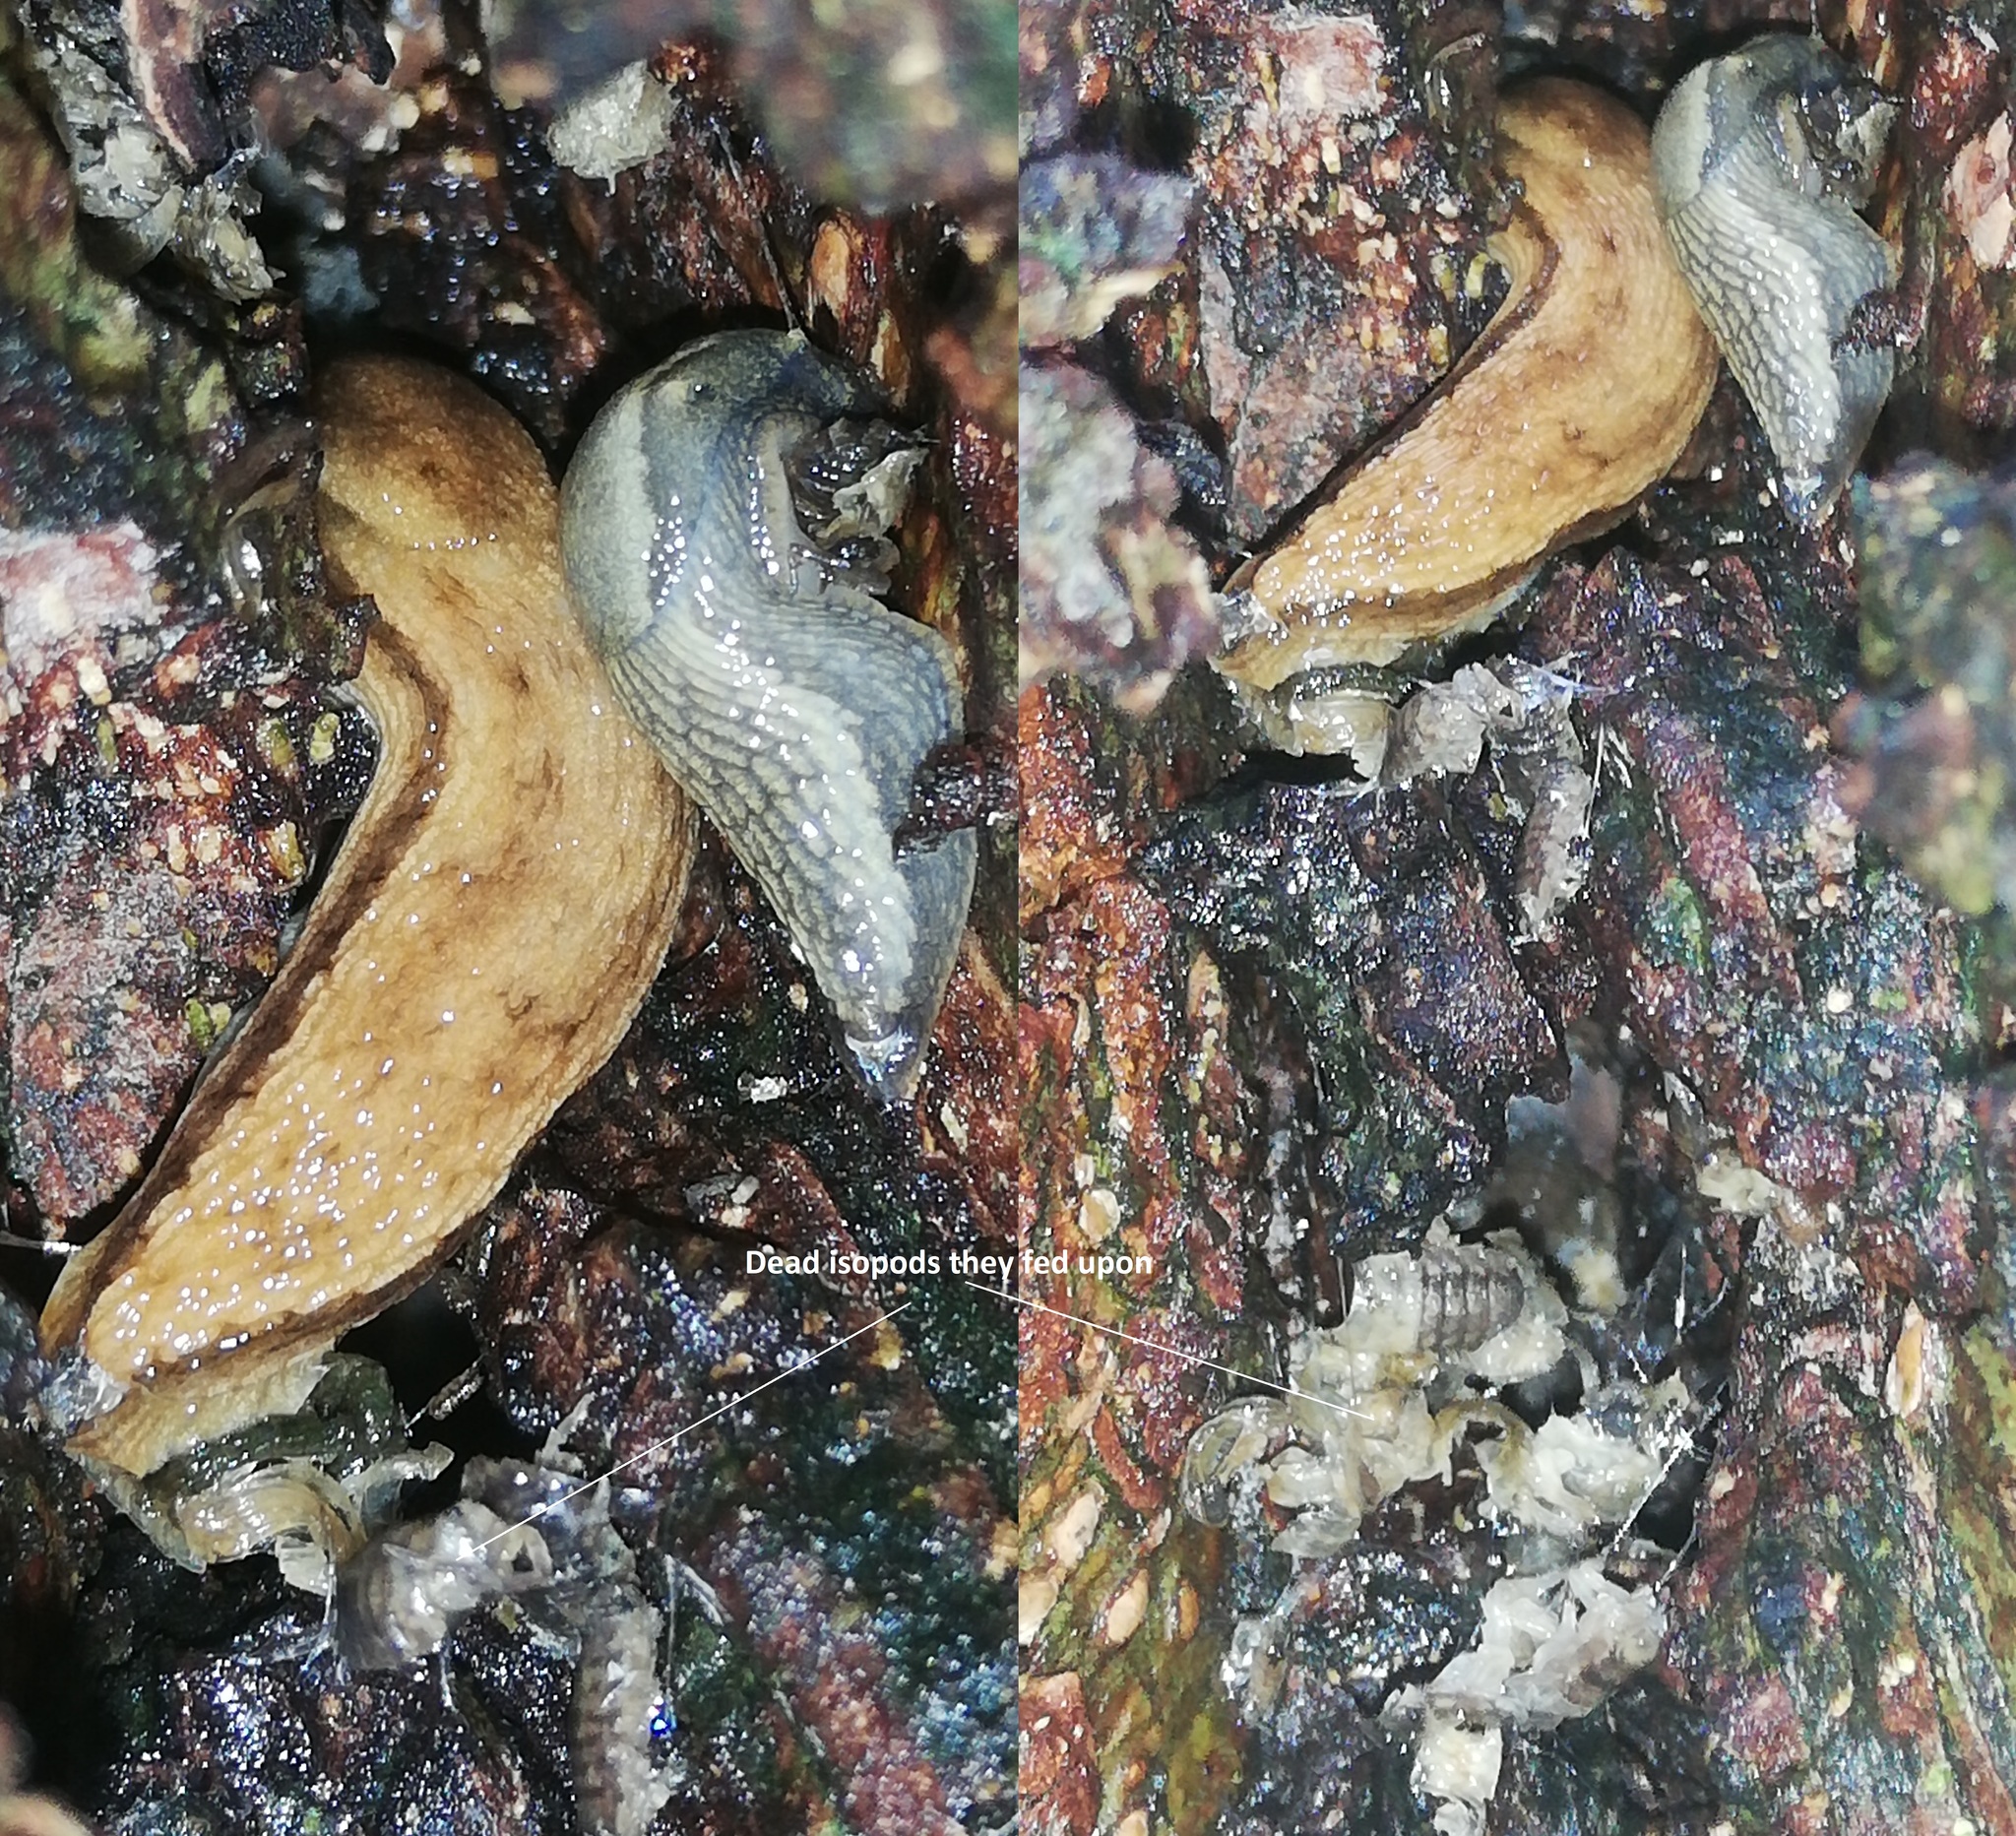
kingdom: Animalia
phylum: Mollusca
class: Gastropoda
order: Stylommatophora
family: Arionidae
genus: Arion
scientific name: Arion fuscus
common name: Northern dusky slug
